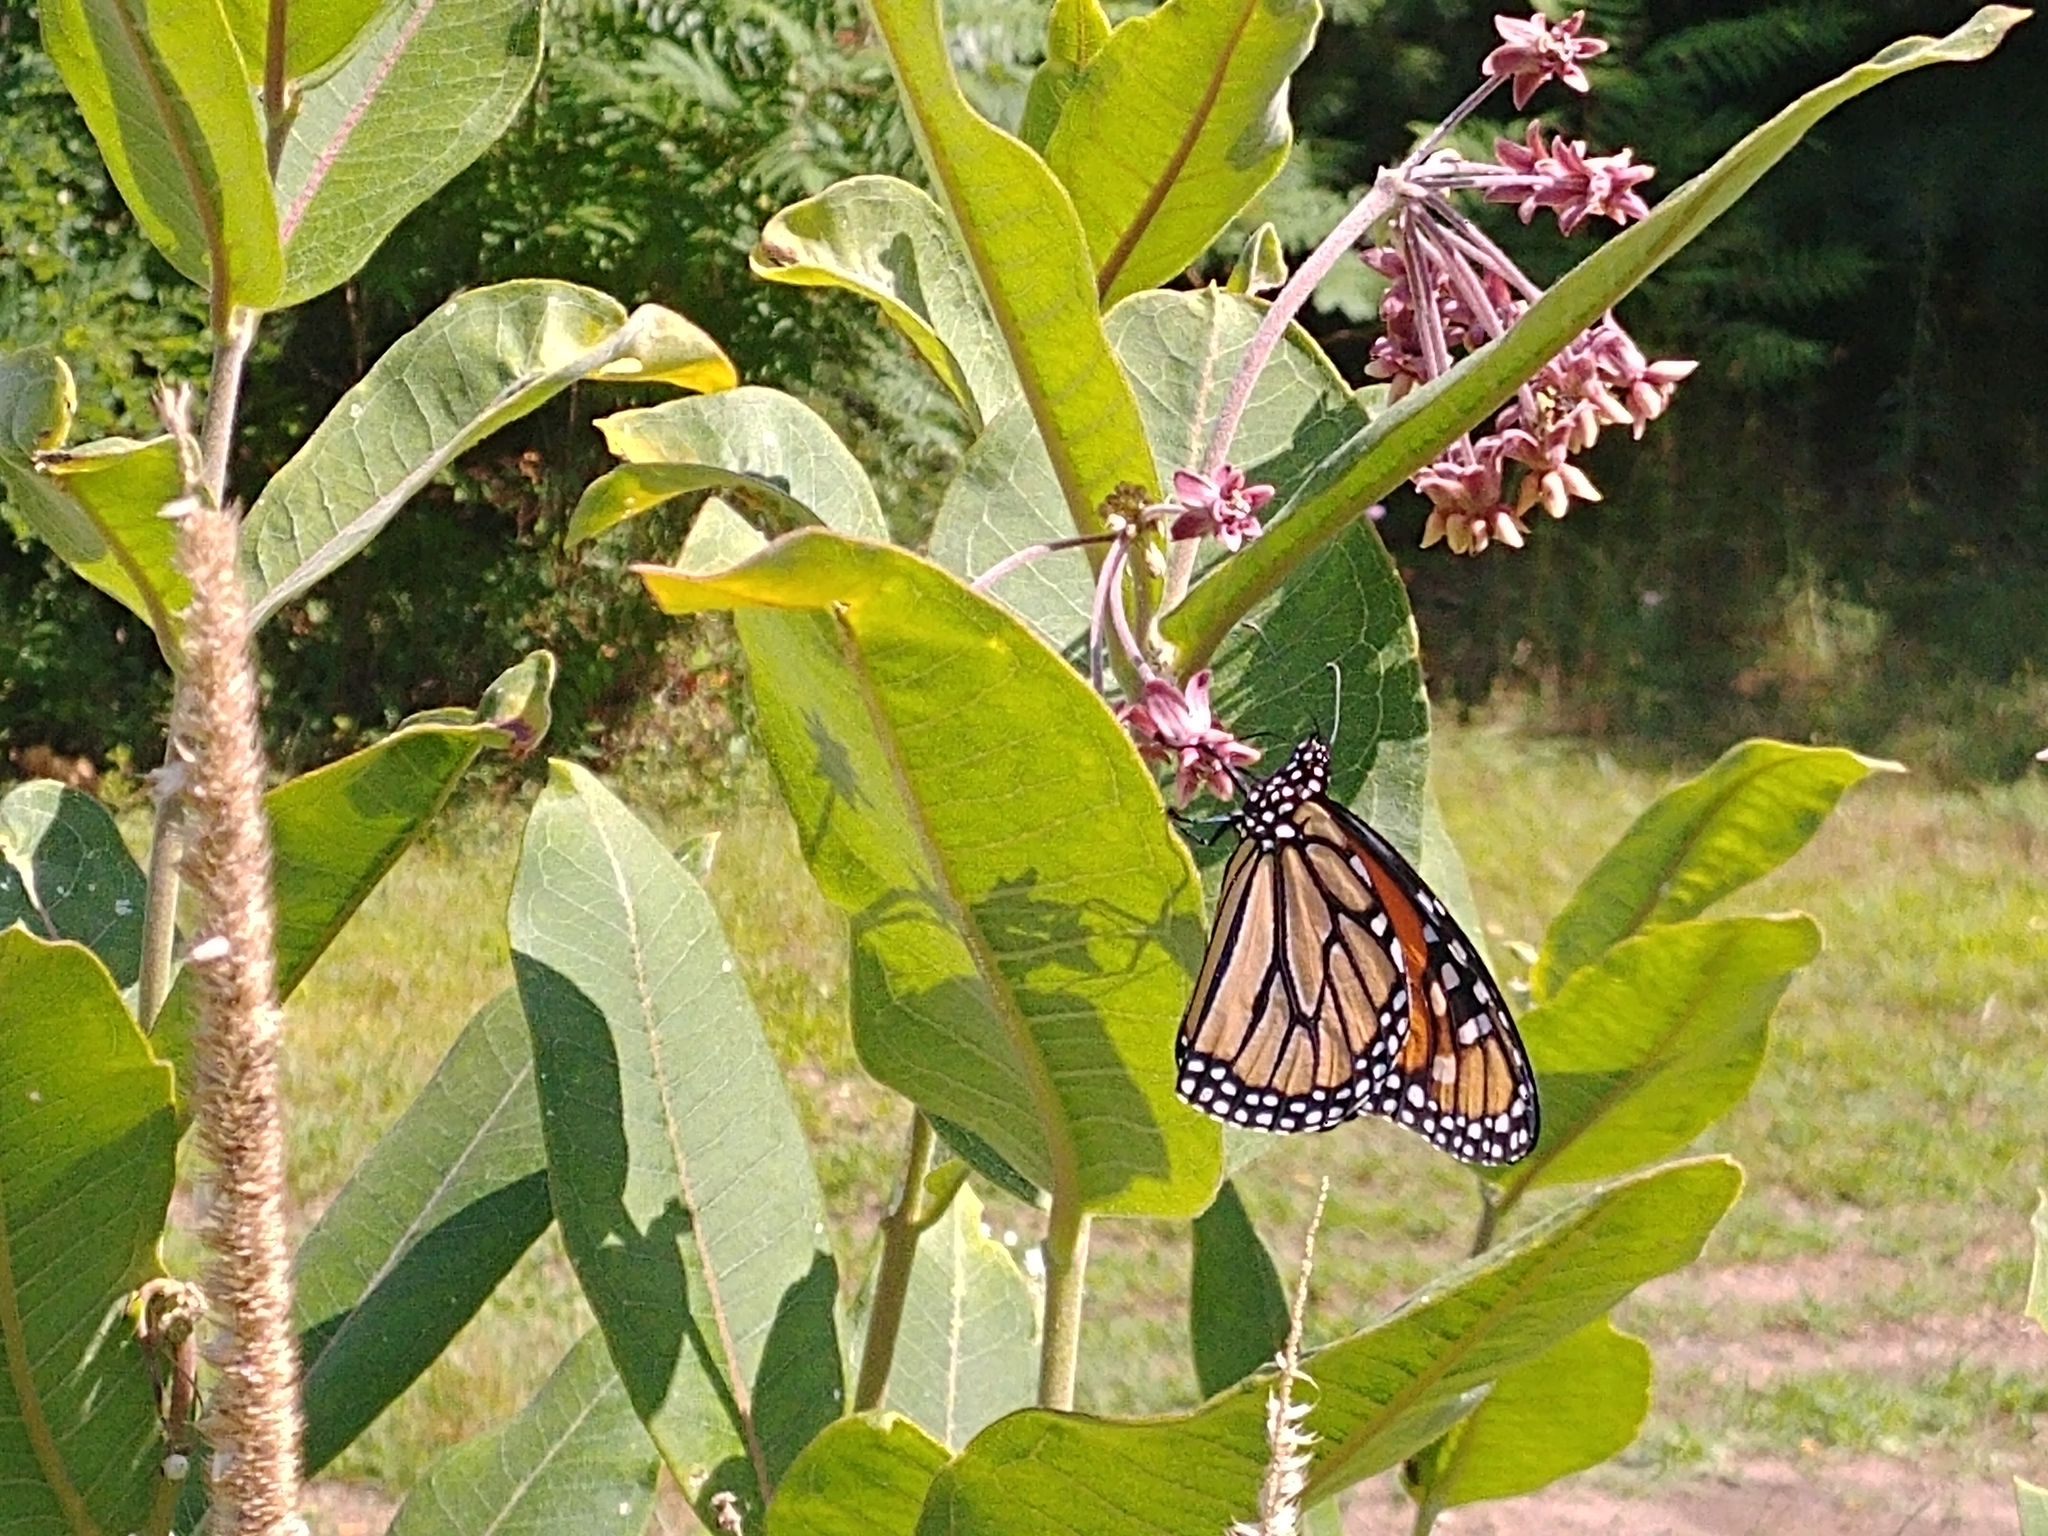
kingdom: Animalia
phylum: Arthropoda
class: Insecta
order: Lepidoptera
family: Nymphalidae
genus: Danaus
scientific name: Danaus plexippus
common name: Monarch
